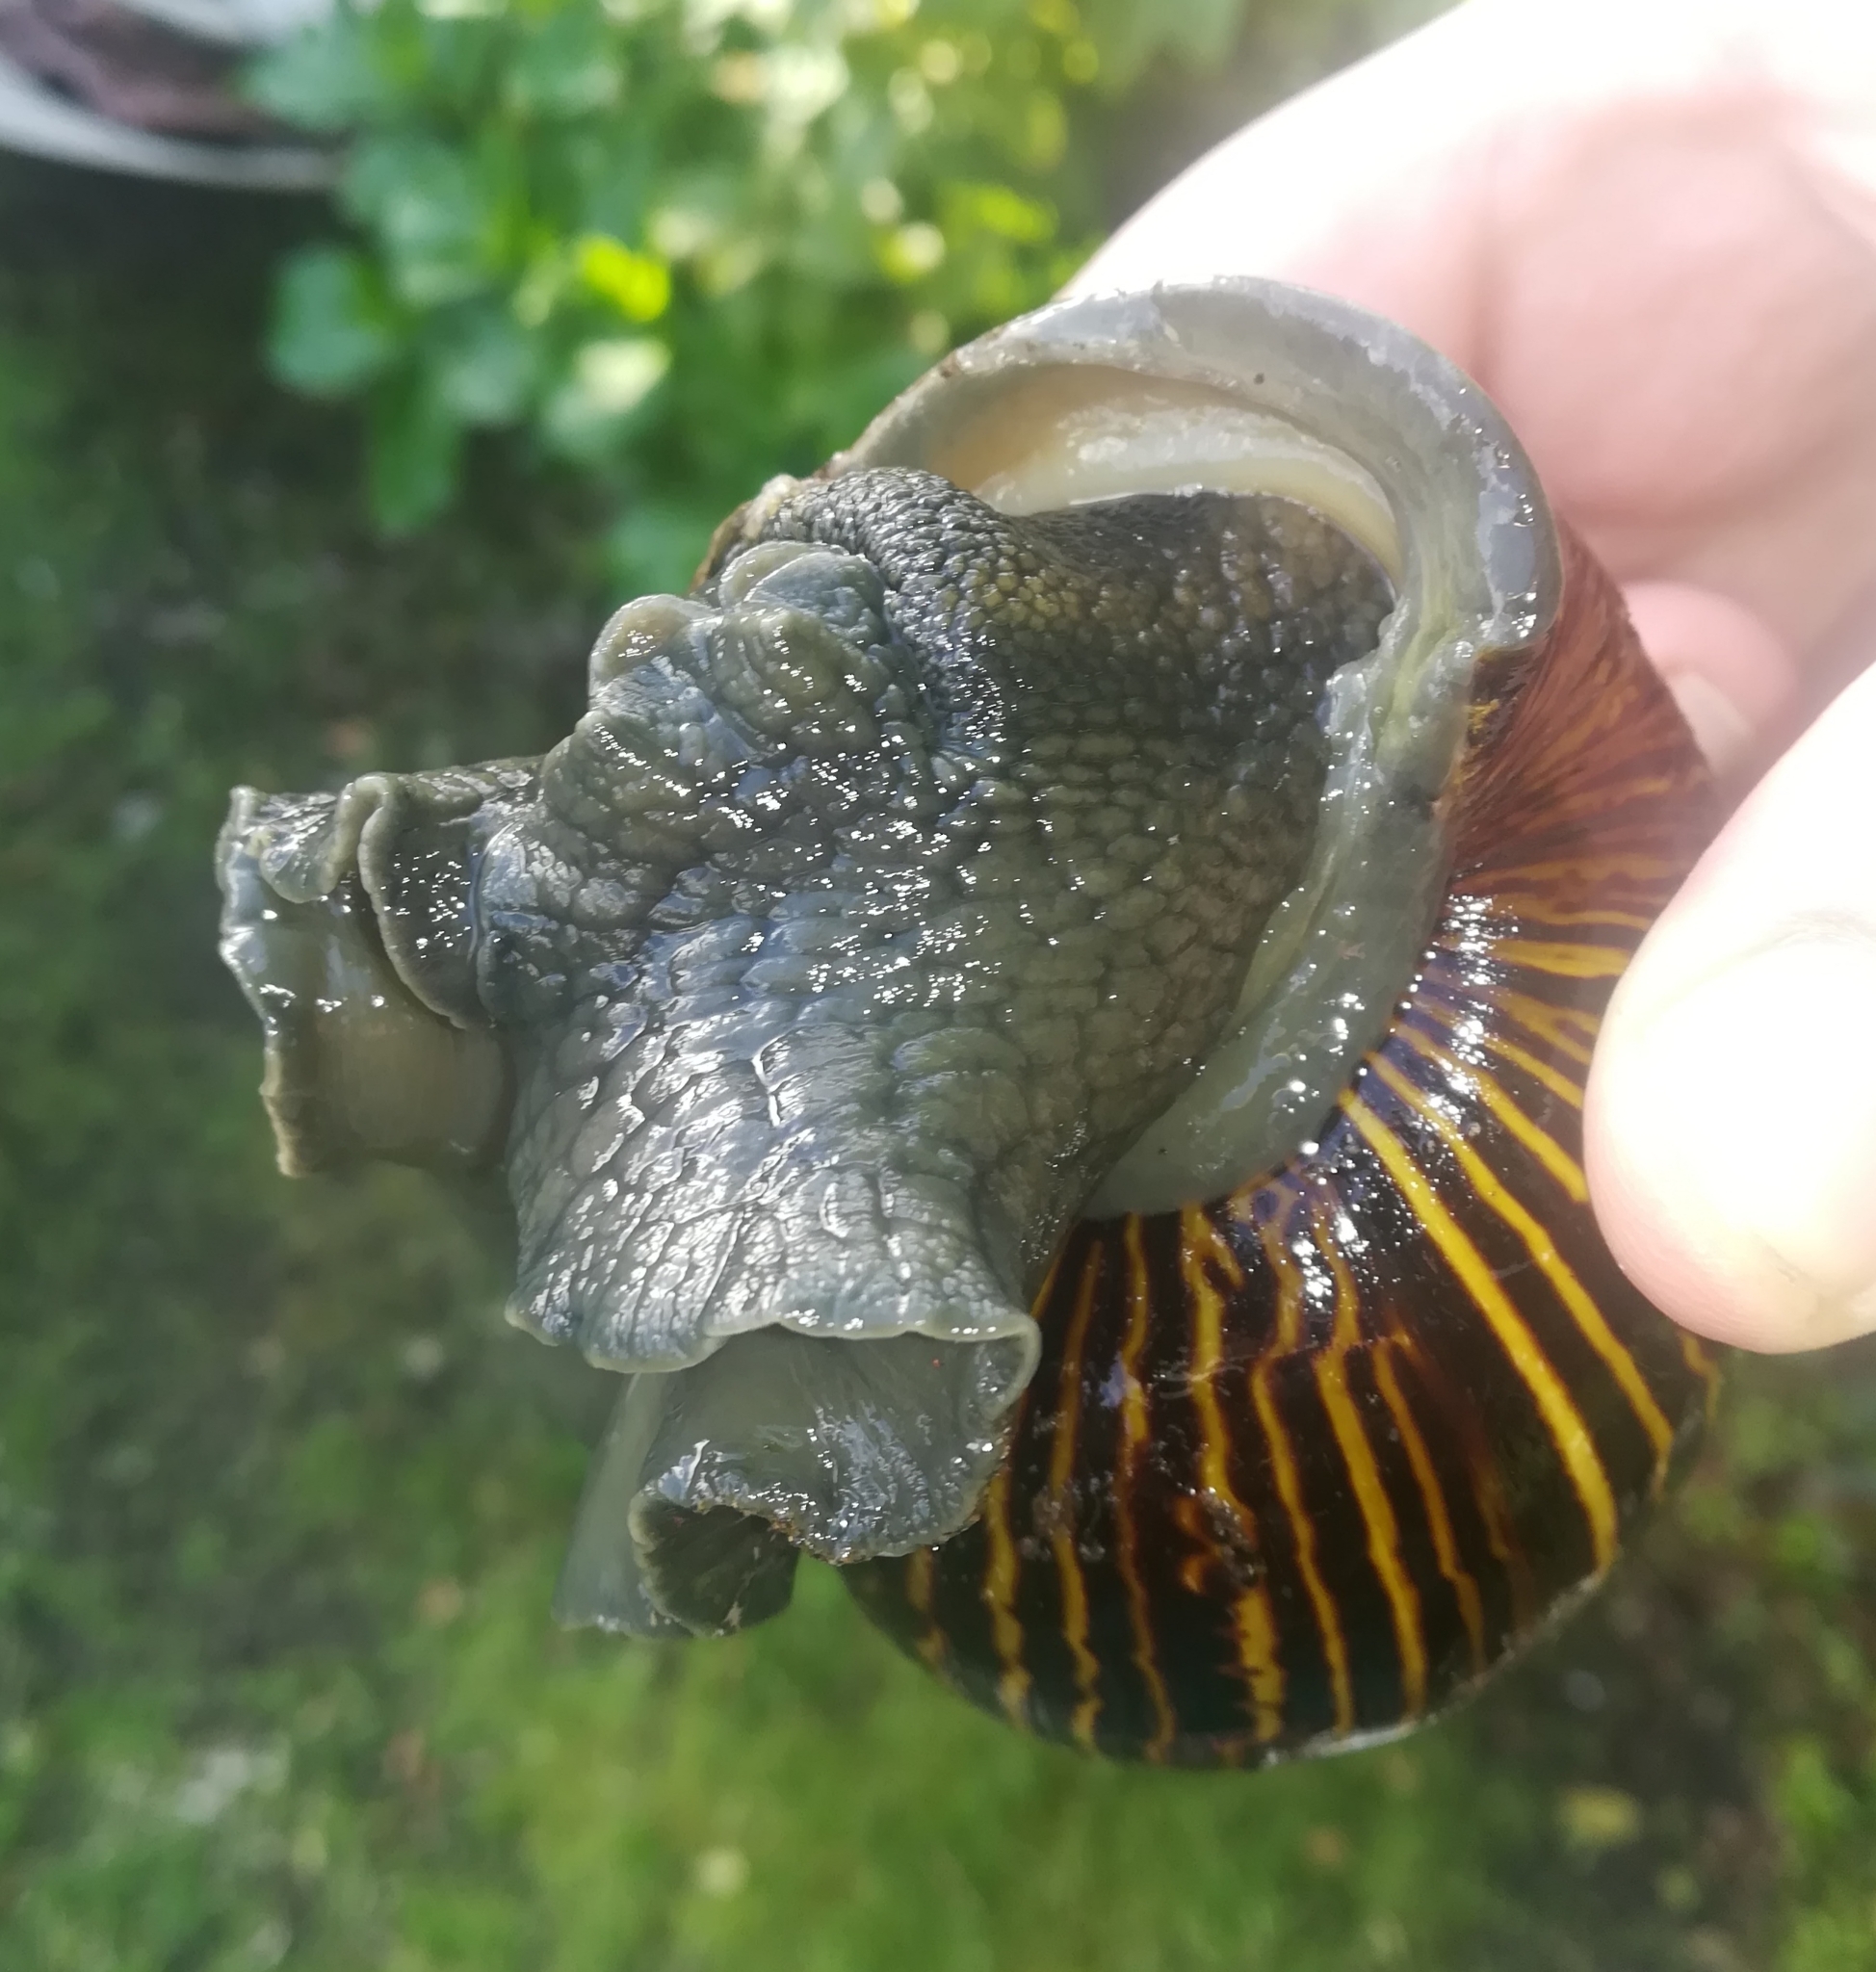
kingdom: Animalia
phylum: Mollusca
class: Gastropoda
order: Stylommatophora
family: Achatinidae
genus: Cochlitoma
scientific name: Cochlitoma zebra
